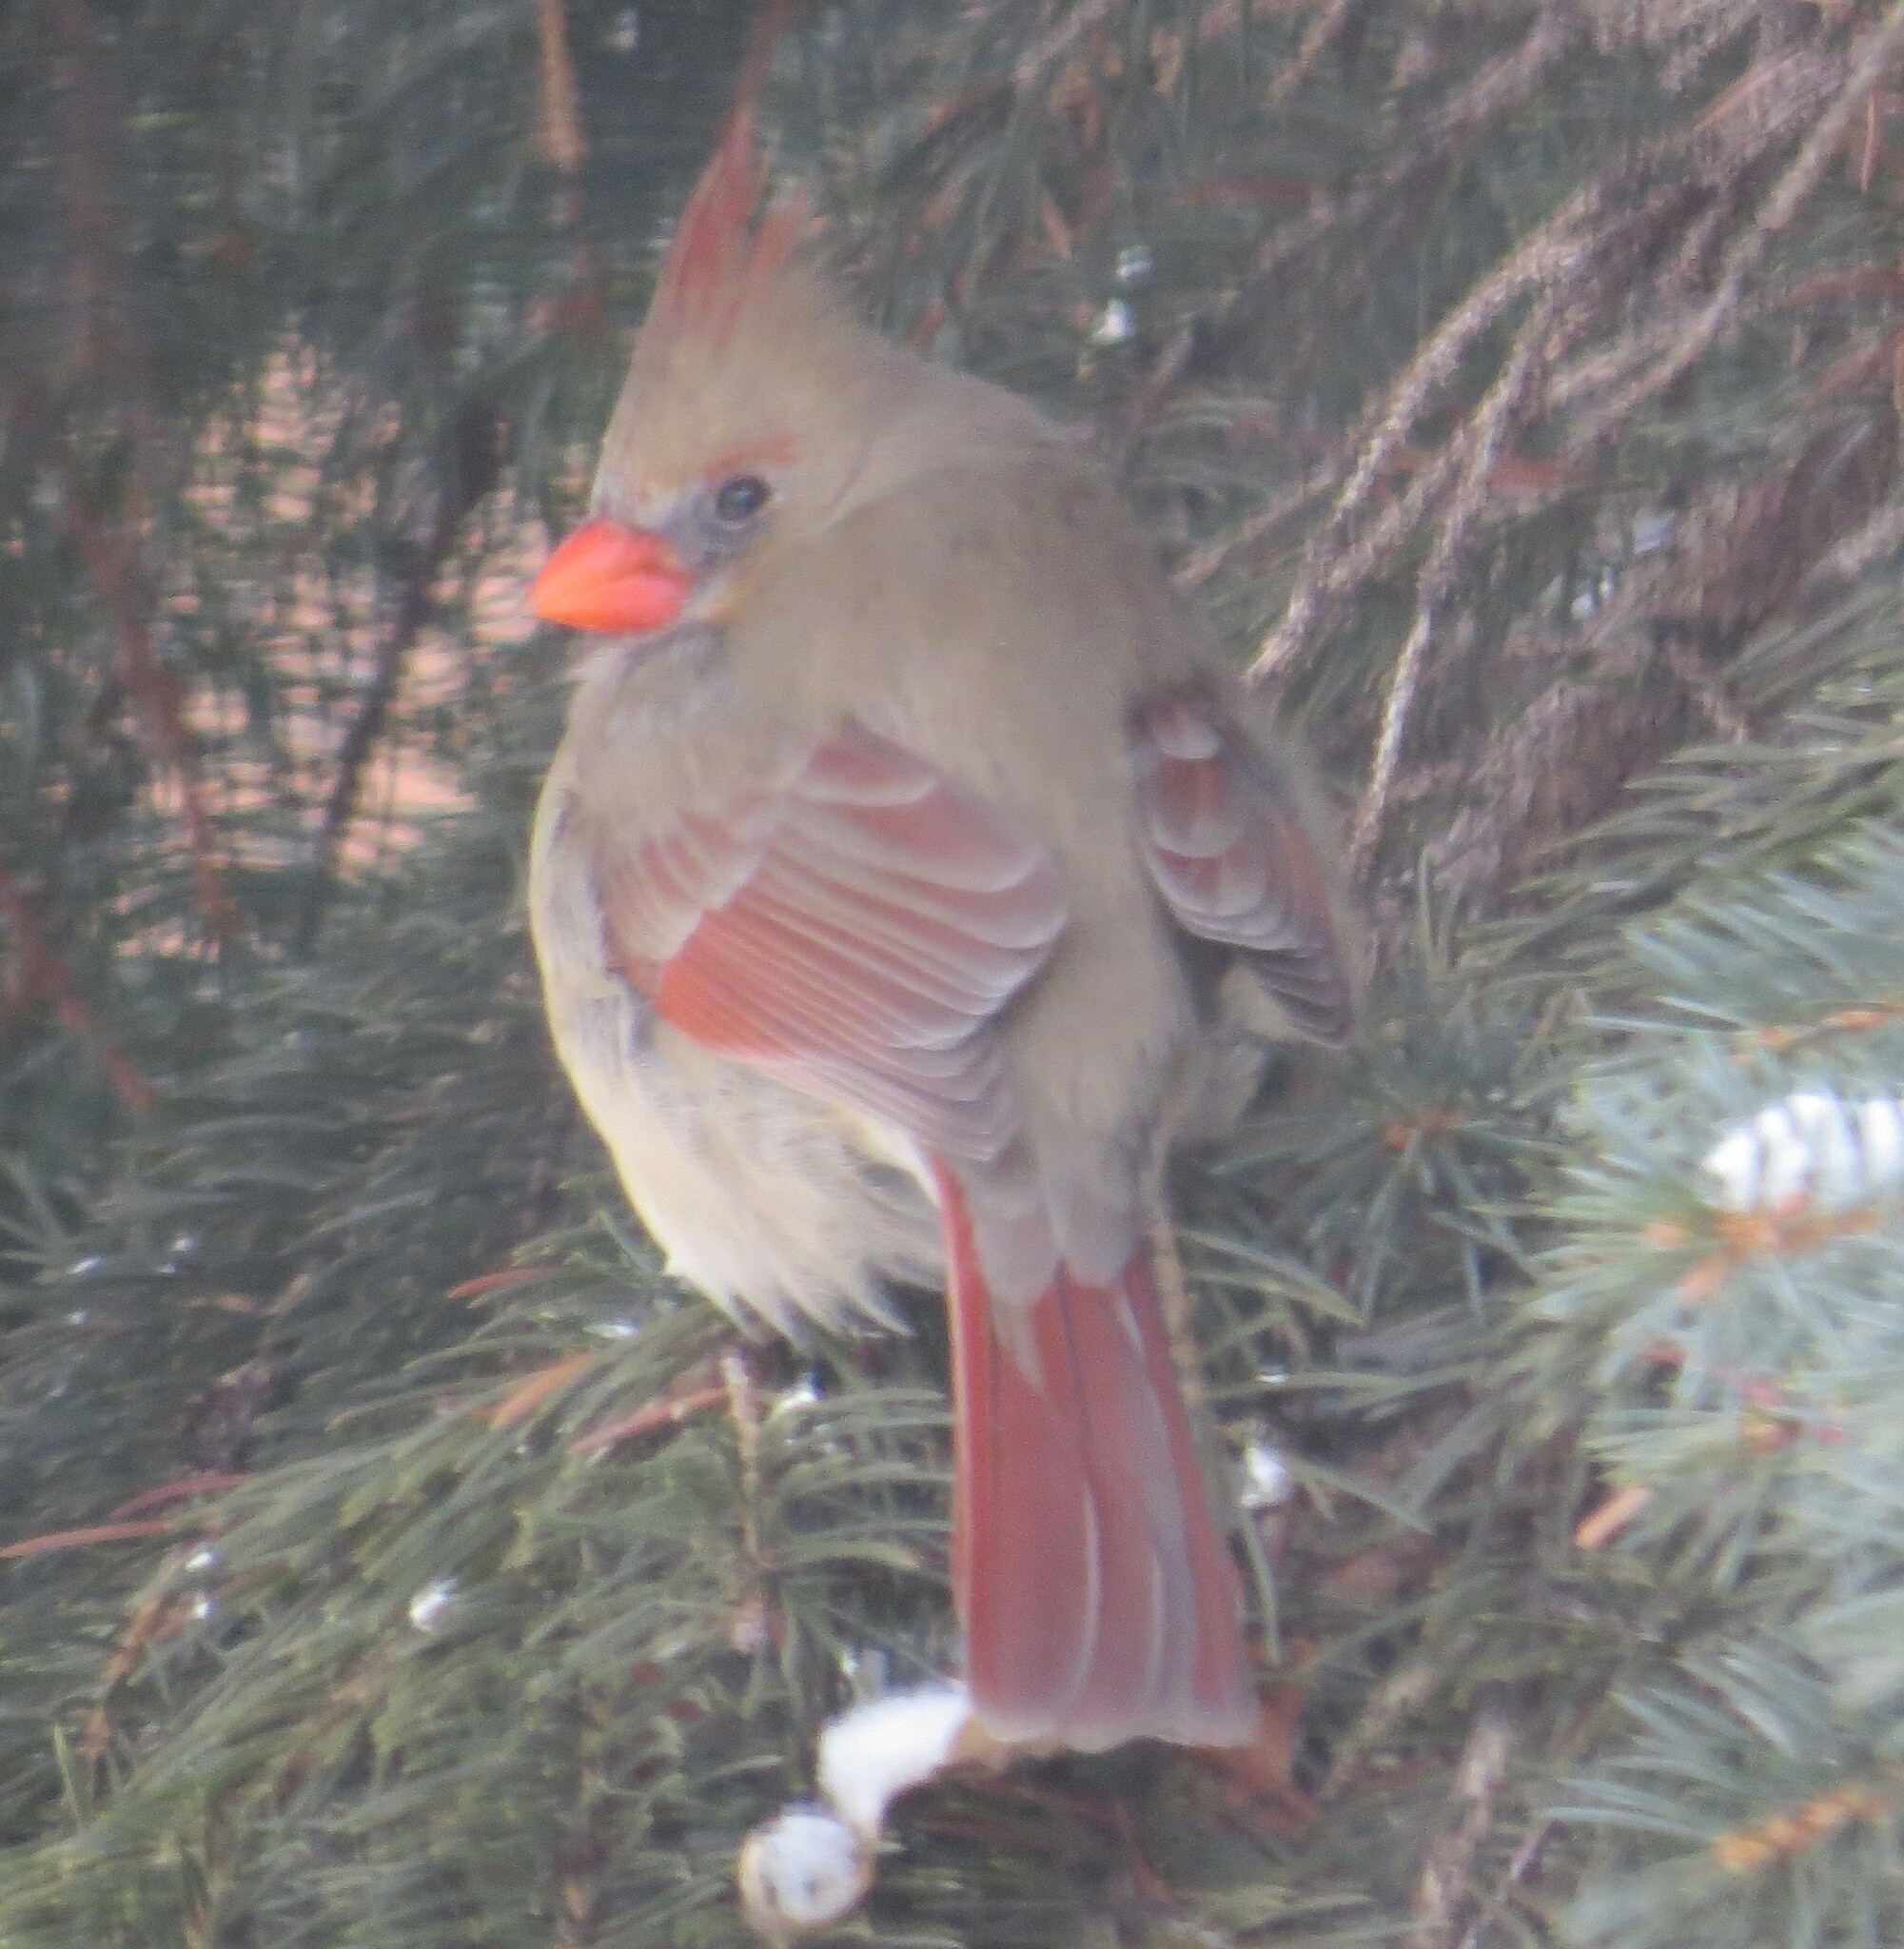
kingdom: Animalia
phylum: Chordata
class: Aves
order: Passeriformes
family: Cardinalidae
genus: Cardinalis
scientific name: Cardinalis cardinalis
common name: Northern cardinal
